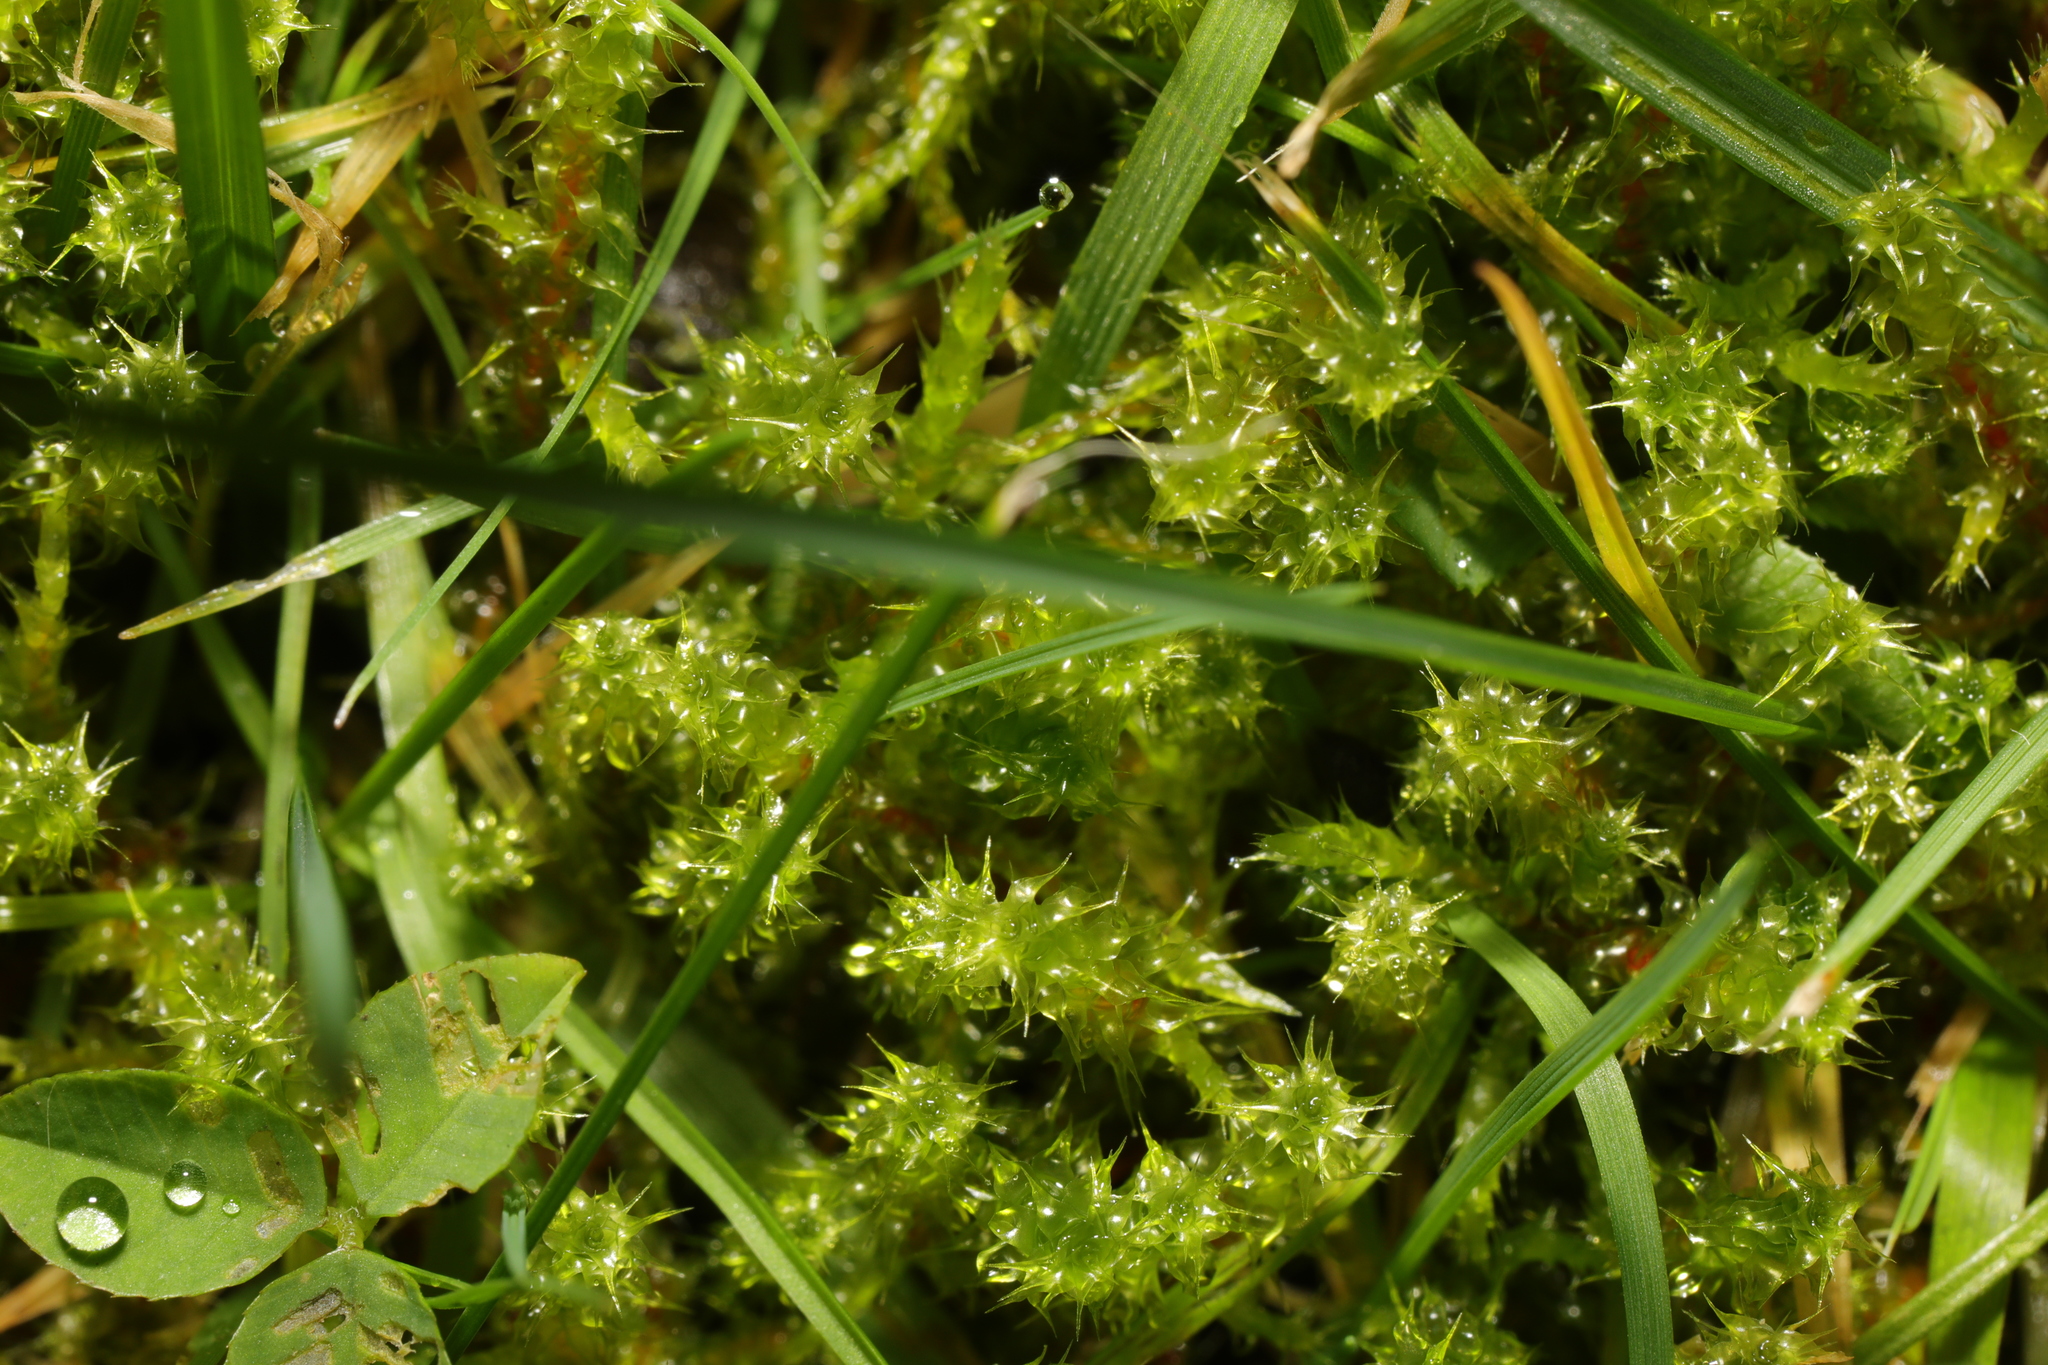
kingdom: Plantae
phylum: Bryophyta
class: Bryopsida
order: Hypnales
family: Hylocomiaceae
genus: Rhytidiadelphus
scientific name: Rhytidiadelphus squarrosus
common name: Springy turf-moss
